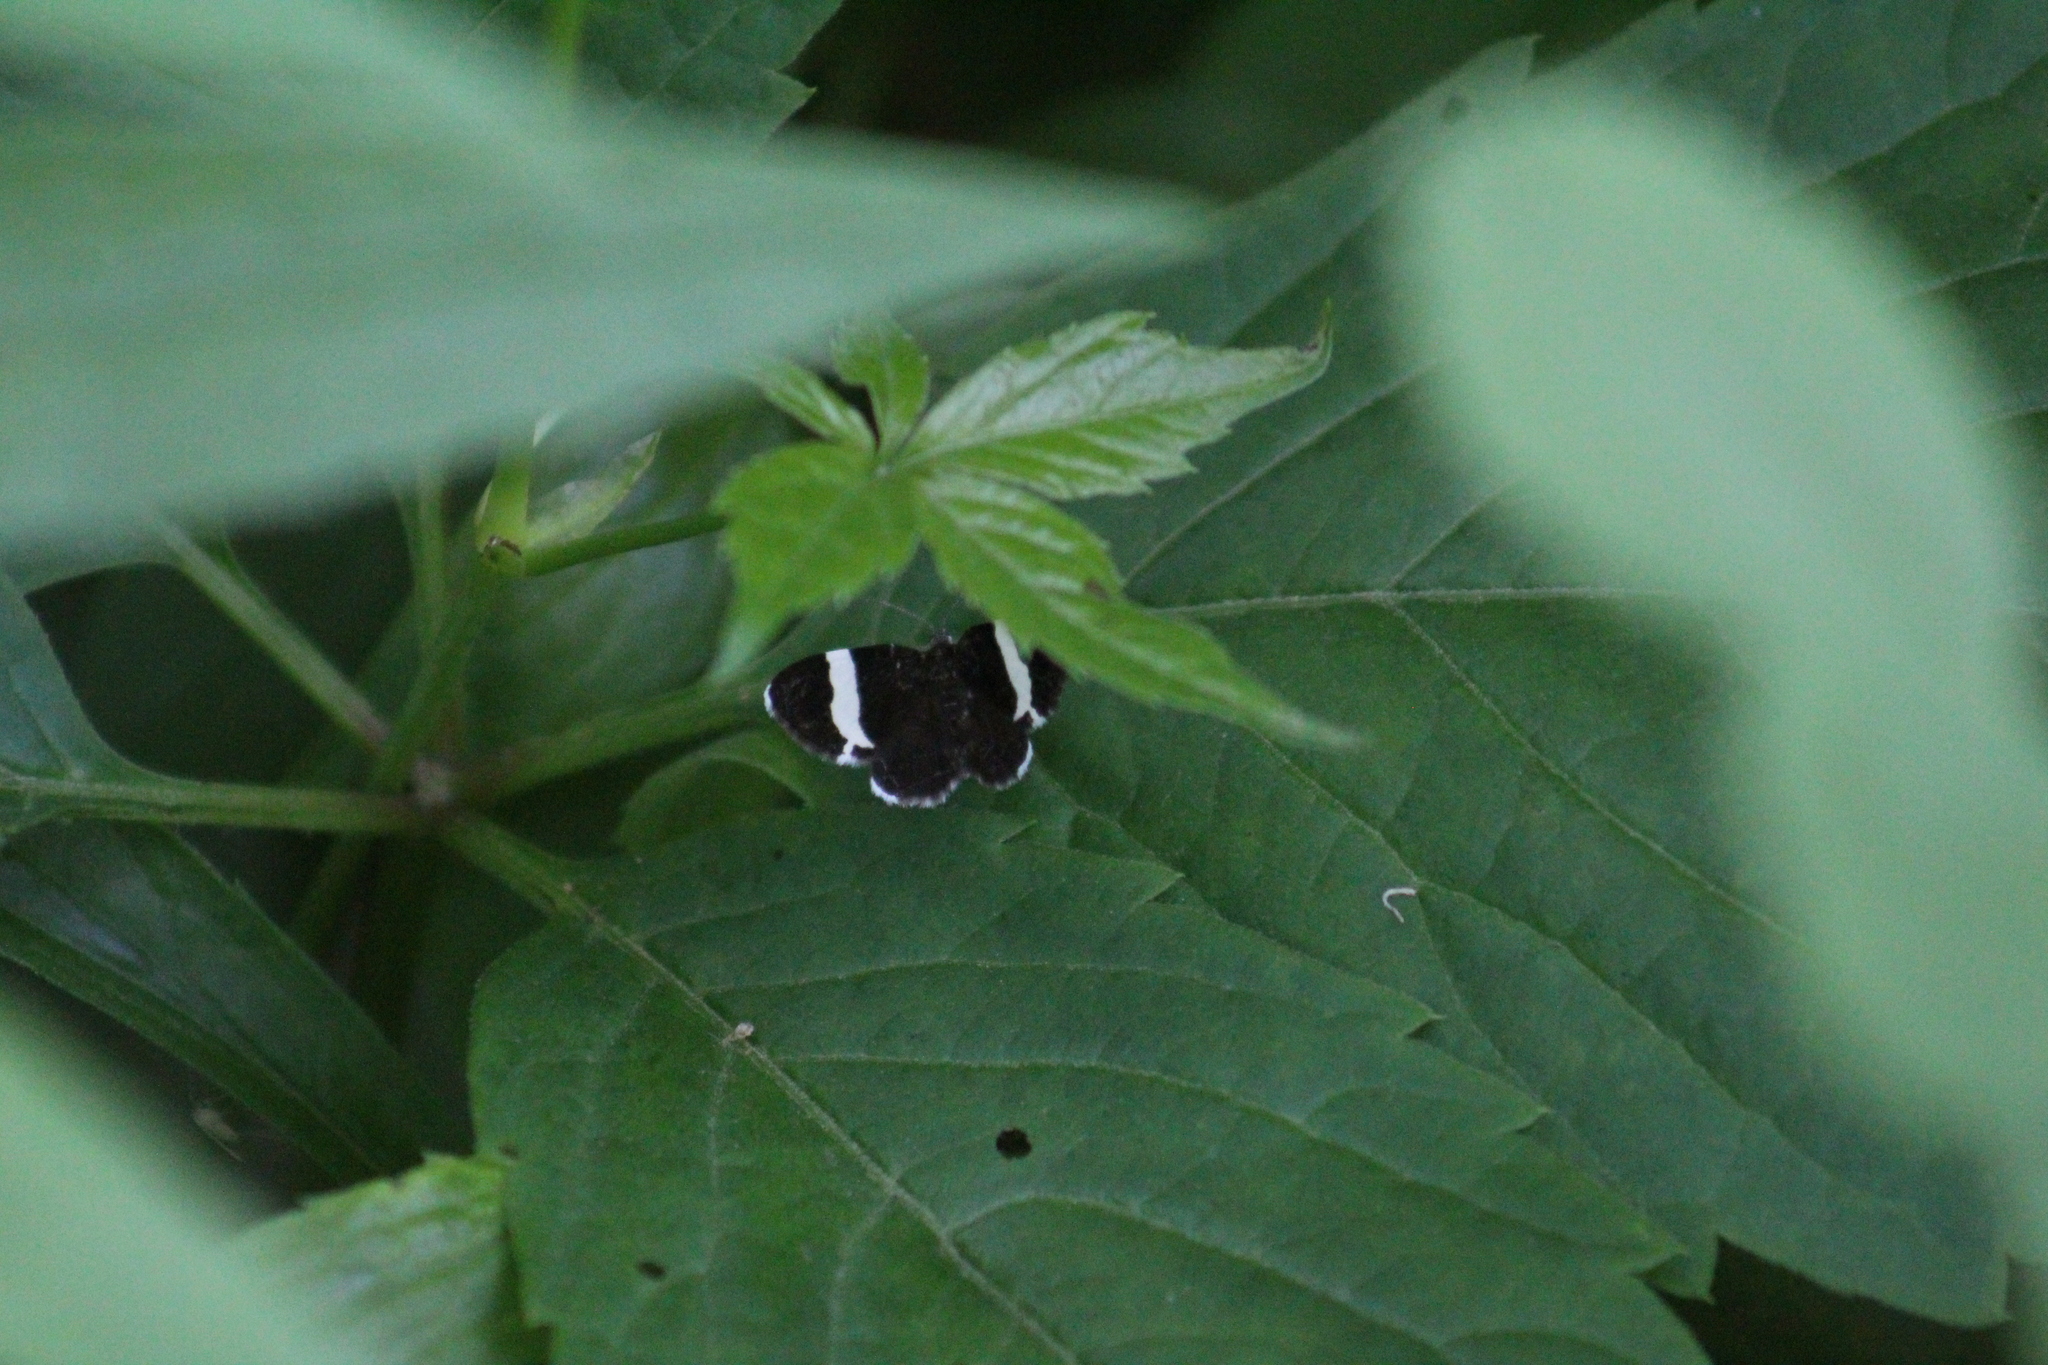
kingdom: Animalia
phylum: Arthropoda
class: Insecta
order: Lepidoptera
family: Geometridae
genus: Trichodezia
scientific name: Trichodezia albovittata
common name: White striped black
